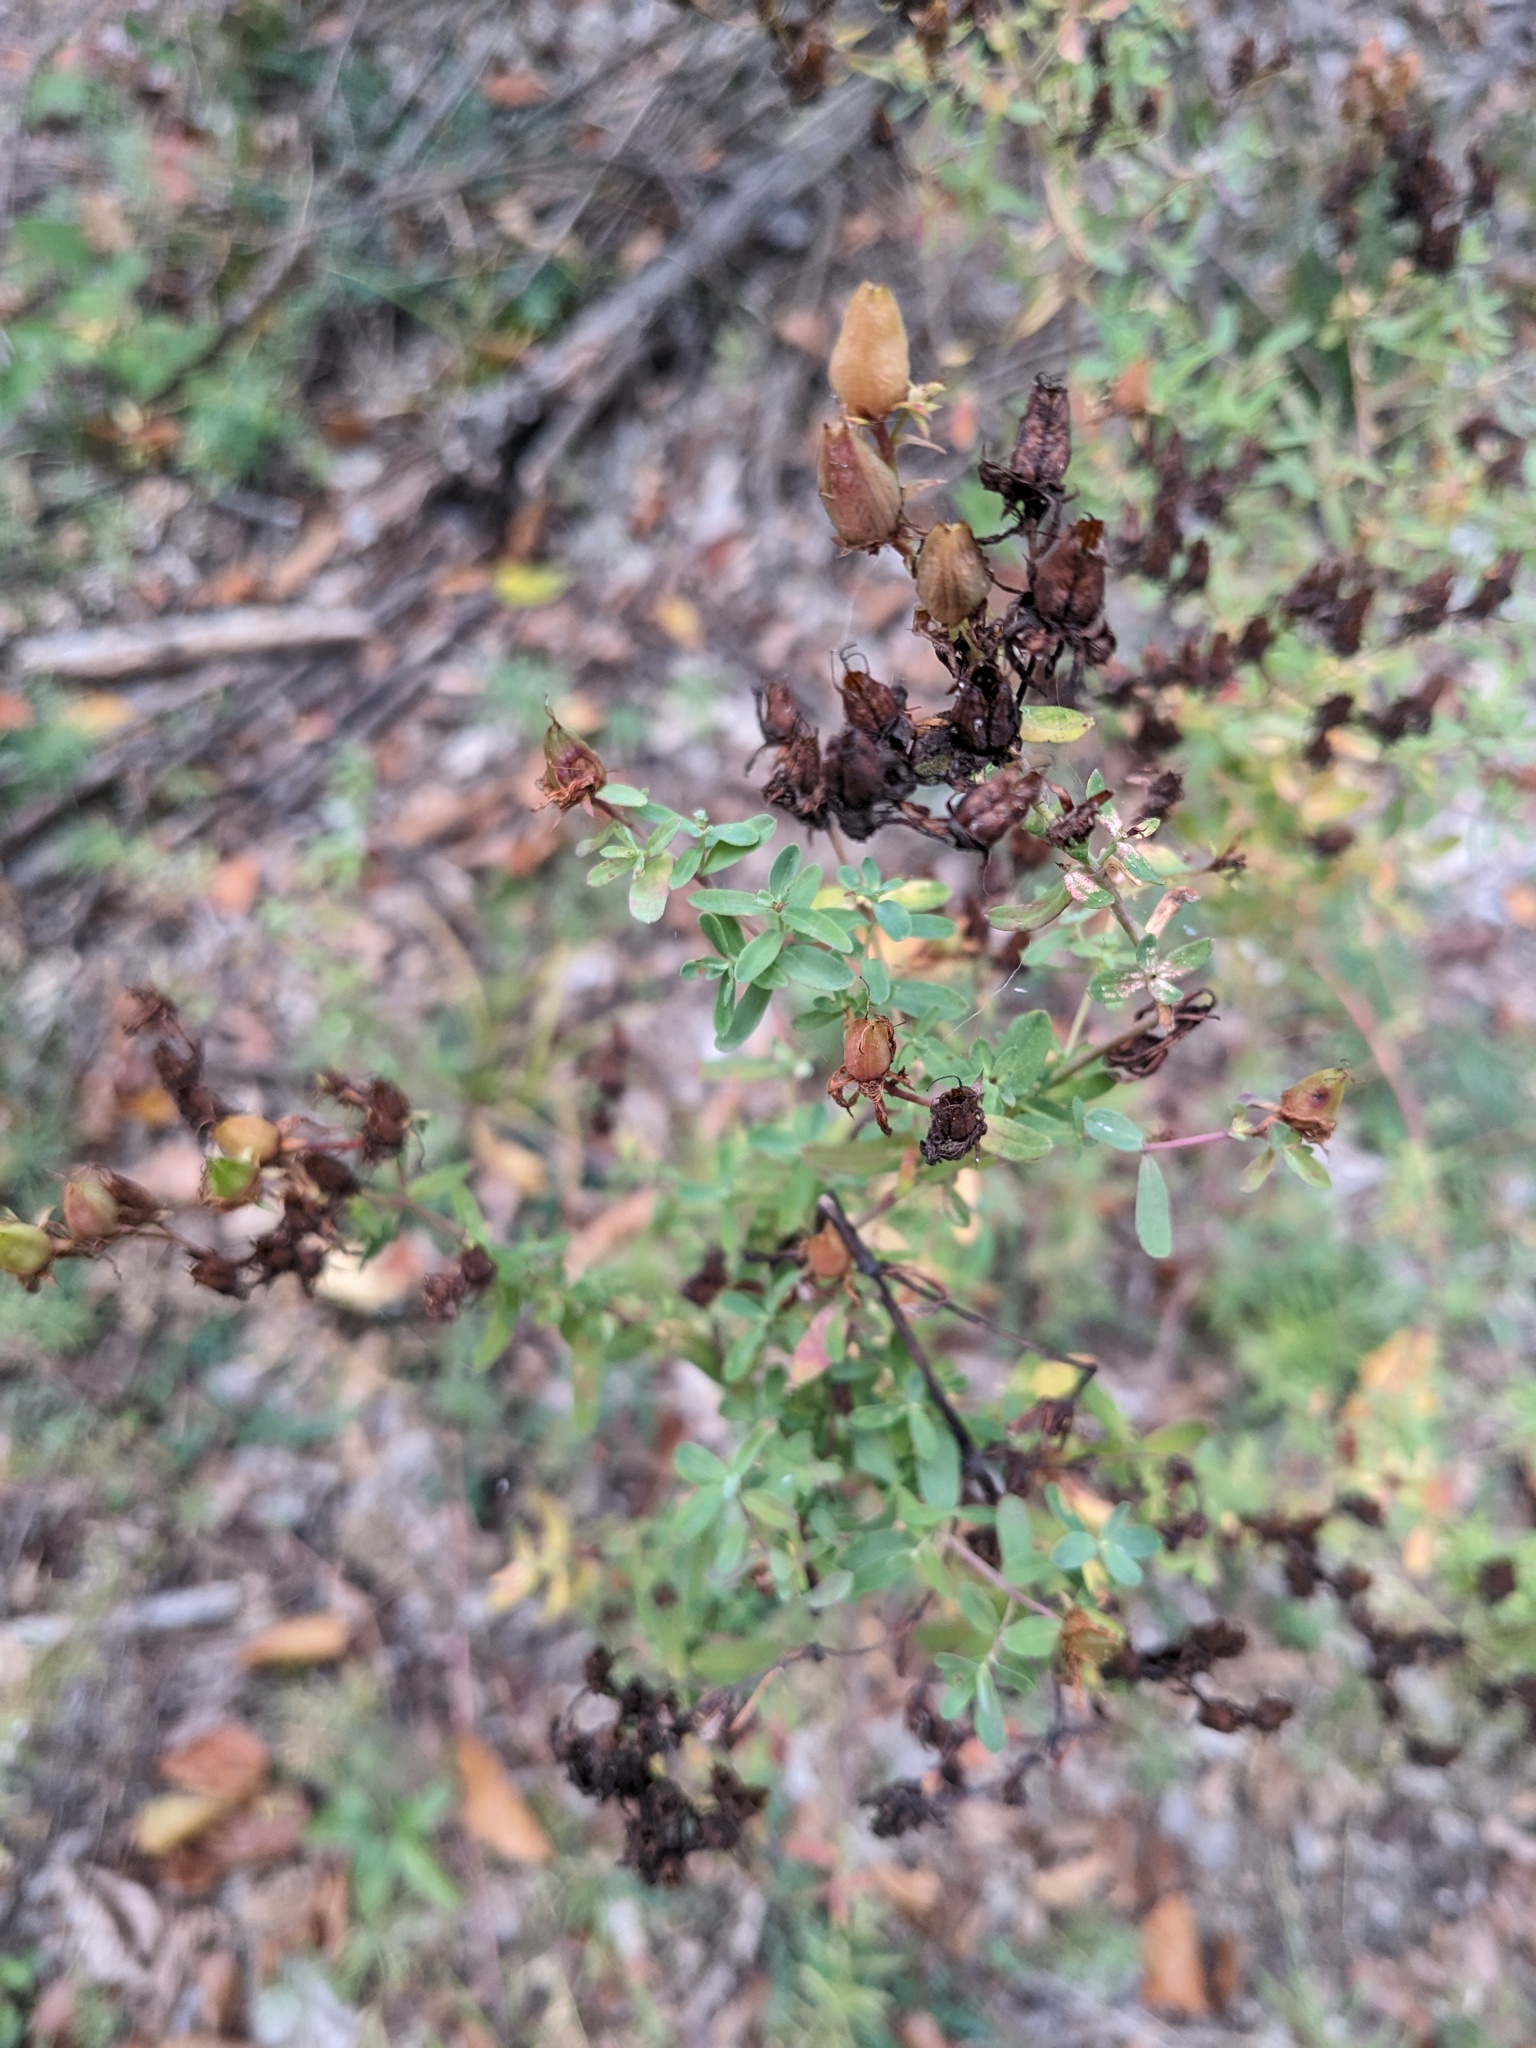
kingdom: Plantae
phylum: Tracheophyta
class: Magnoliopsida
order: Malpighiales
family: Hypericaceae
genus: Hypericum
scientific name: Hypericum perforatum
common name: Common st. johnswort
